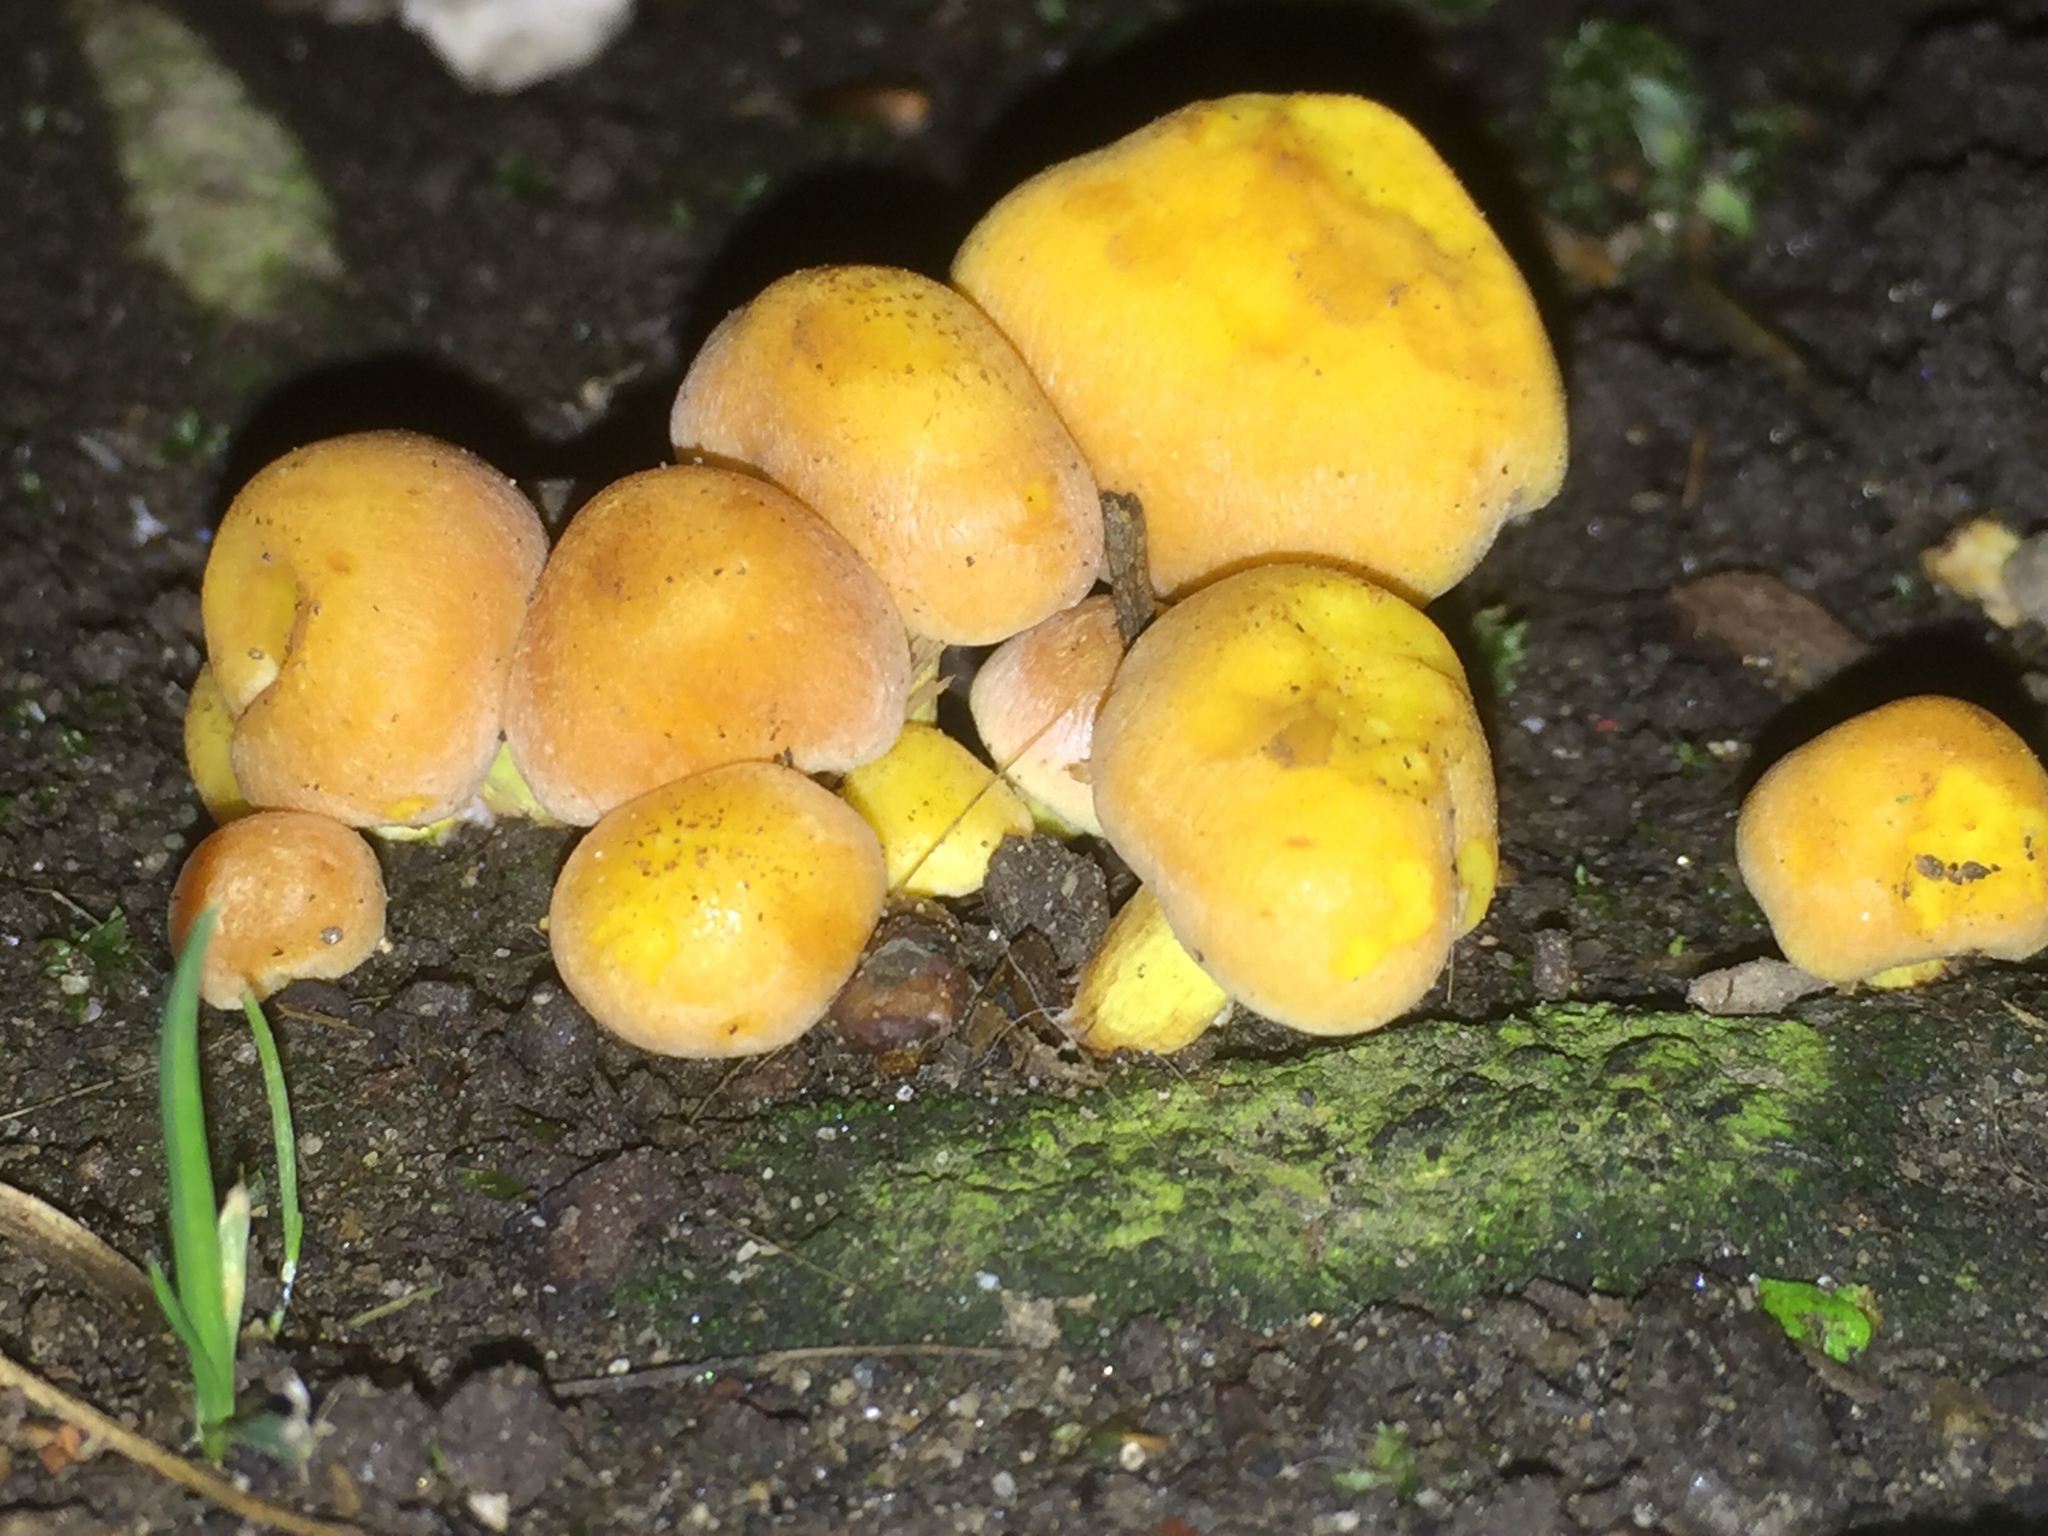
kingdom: Fungi
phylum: Basidiomycota
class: Agaricomycetes
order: Agaricales
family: Strophariaceae
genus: Hypholoma
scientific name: Hypholoma fasciculare
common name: Sulphur tuft
